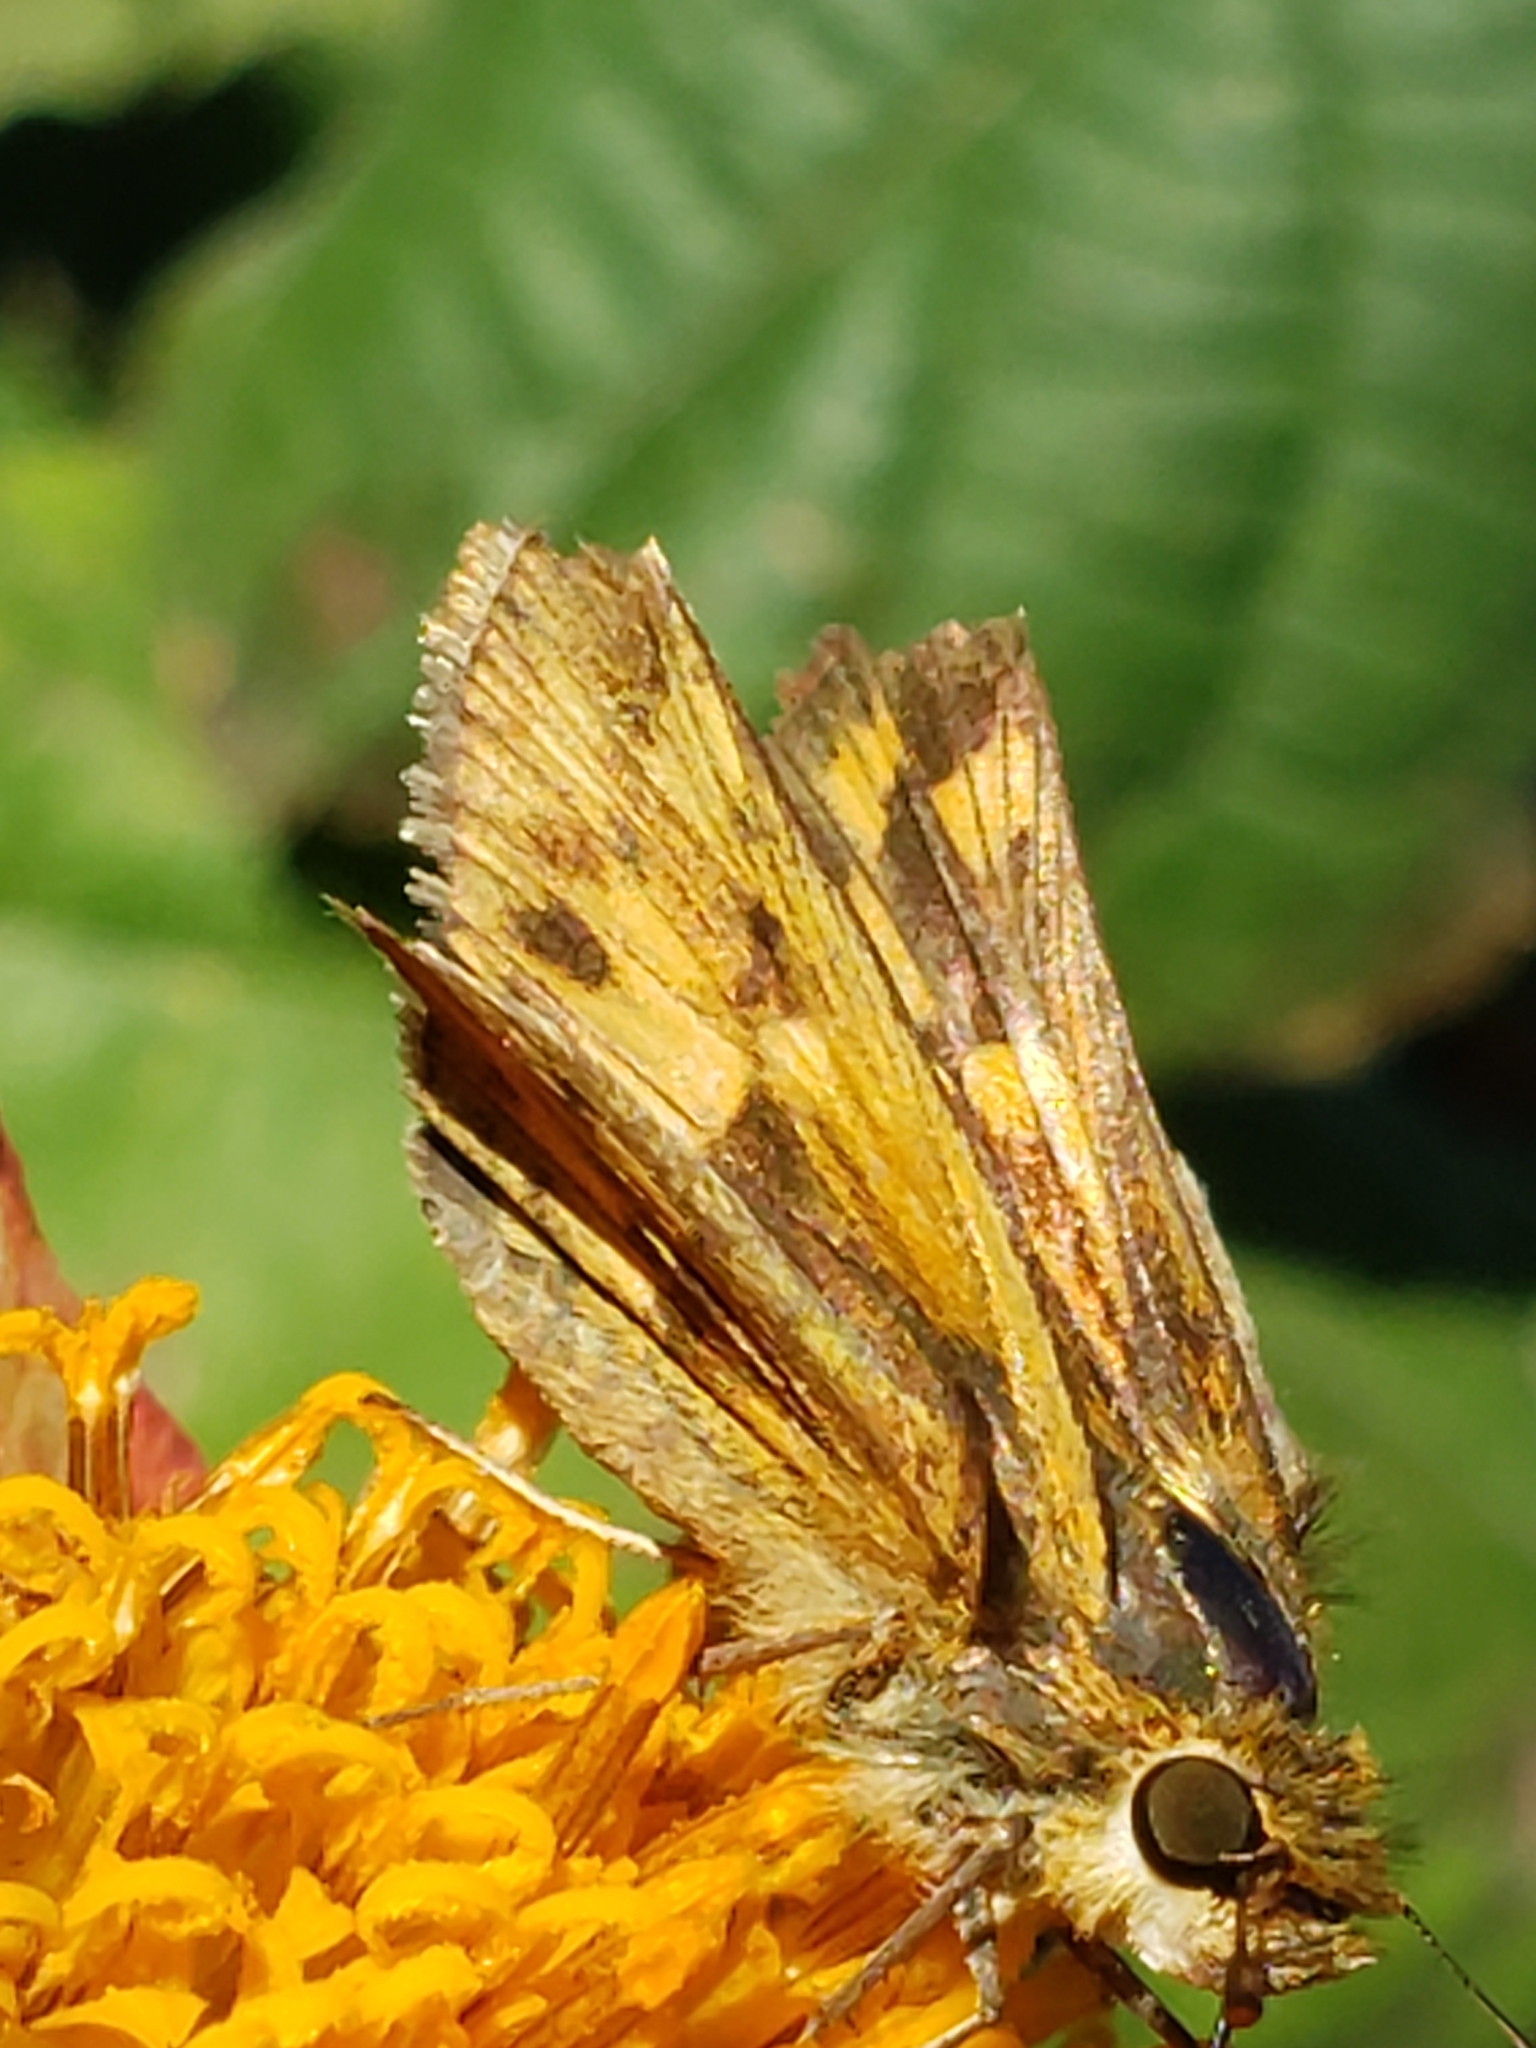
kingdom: Animalia
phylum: Arthropoda
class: Insecta
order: Lepidoptera
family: Hesperiidae
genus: Hylephila
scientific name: Hylephila phyleus
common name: Fiery skipper
